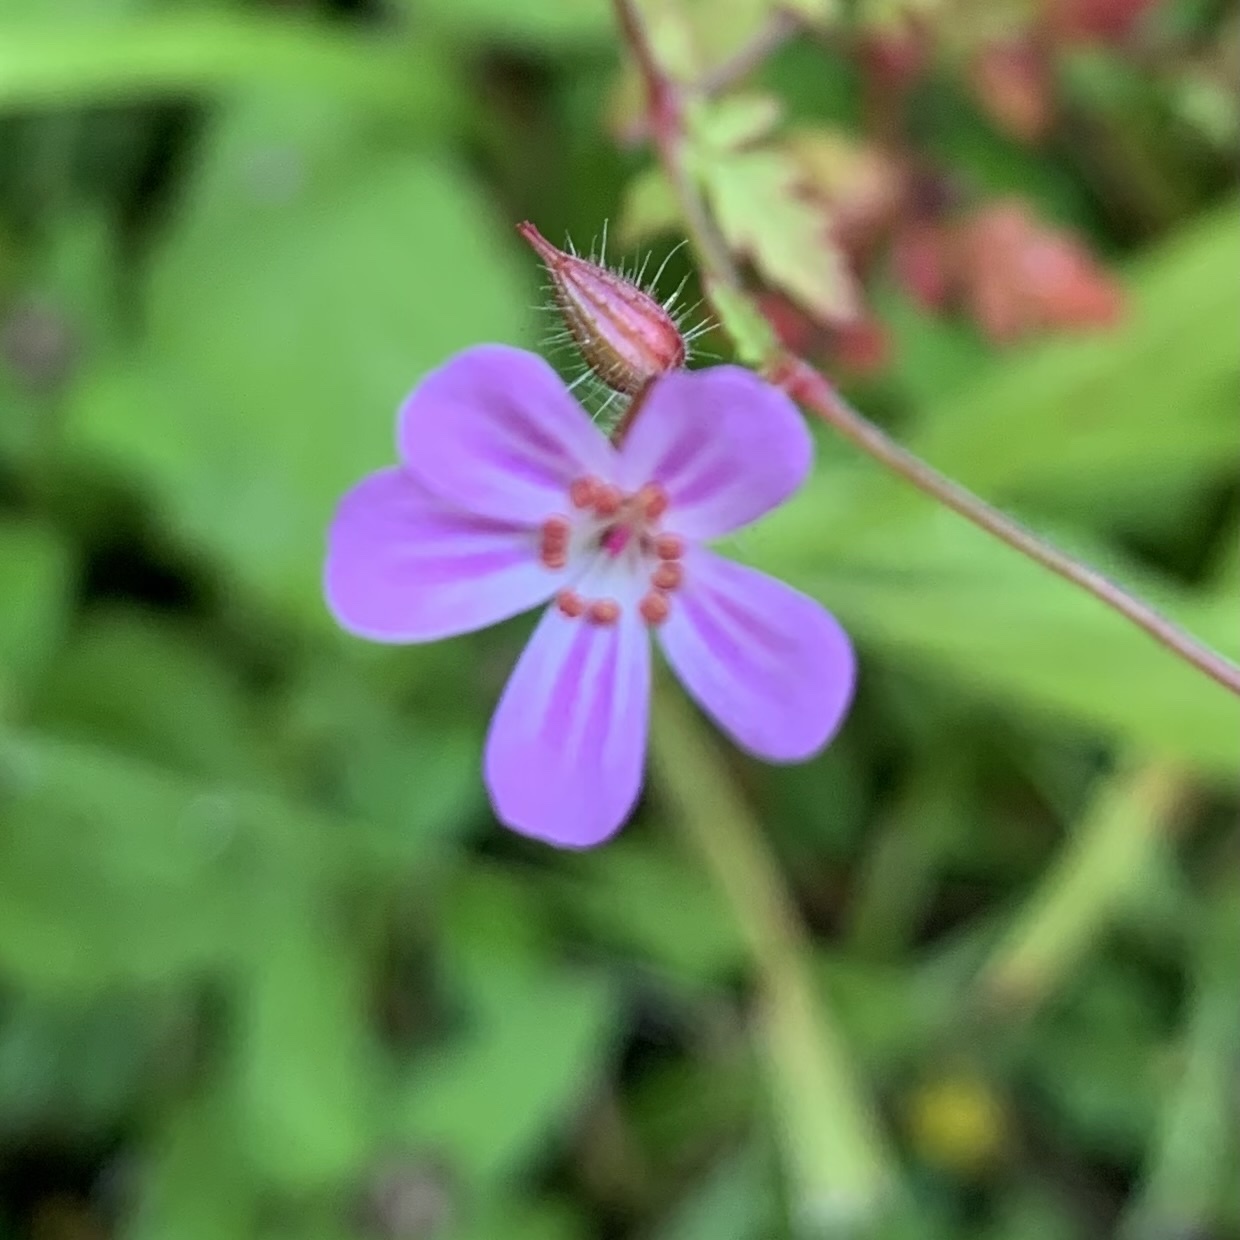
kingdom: Plantae
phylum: Tracheophyta
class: Magnoliopsida
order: Geraniales
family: Geraniaceae
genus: Geranium
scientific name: Geranium robertianum
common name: Herb-robert
